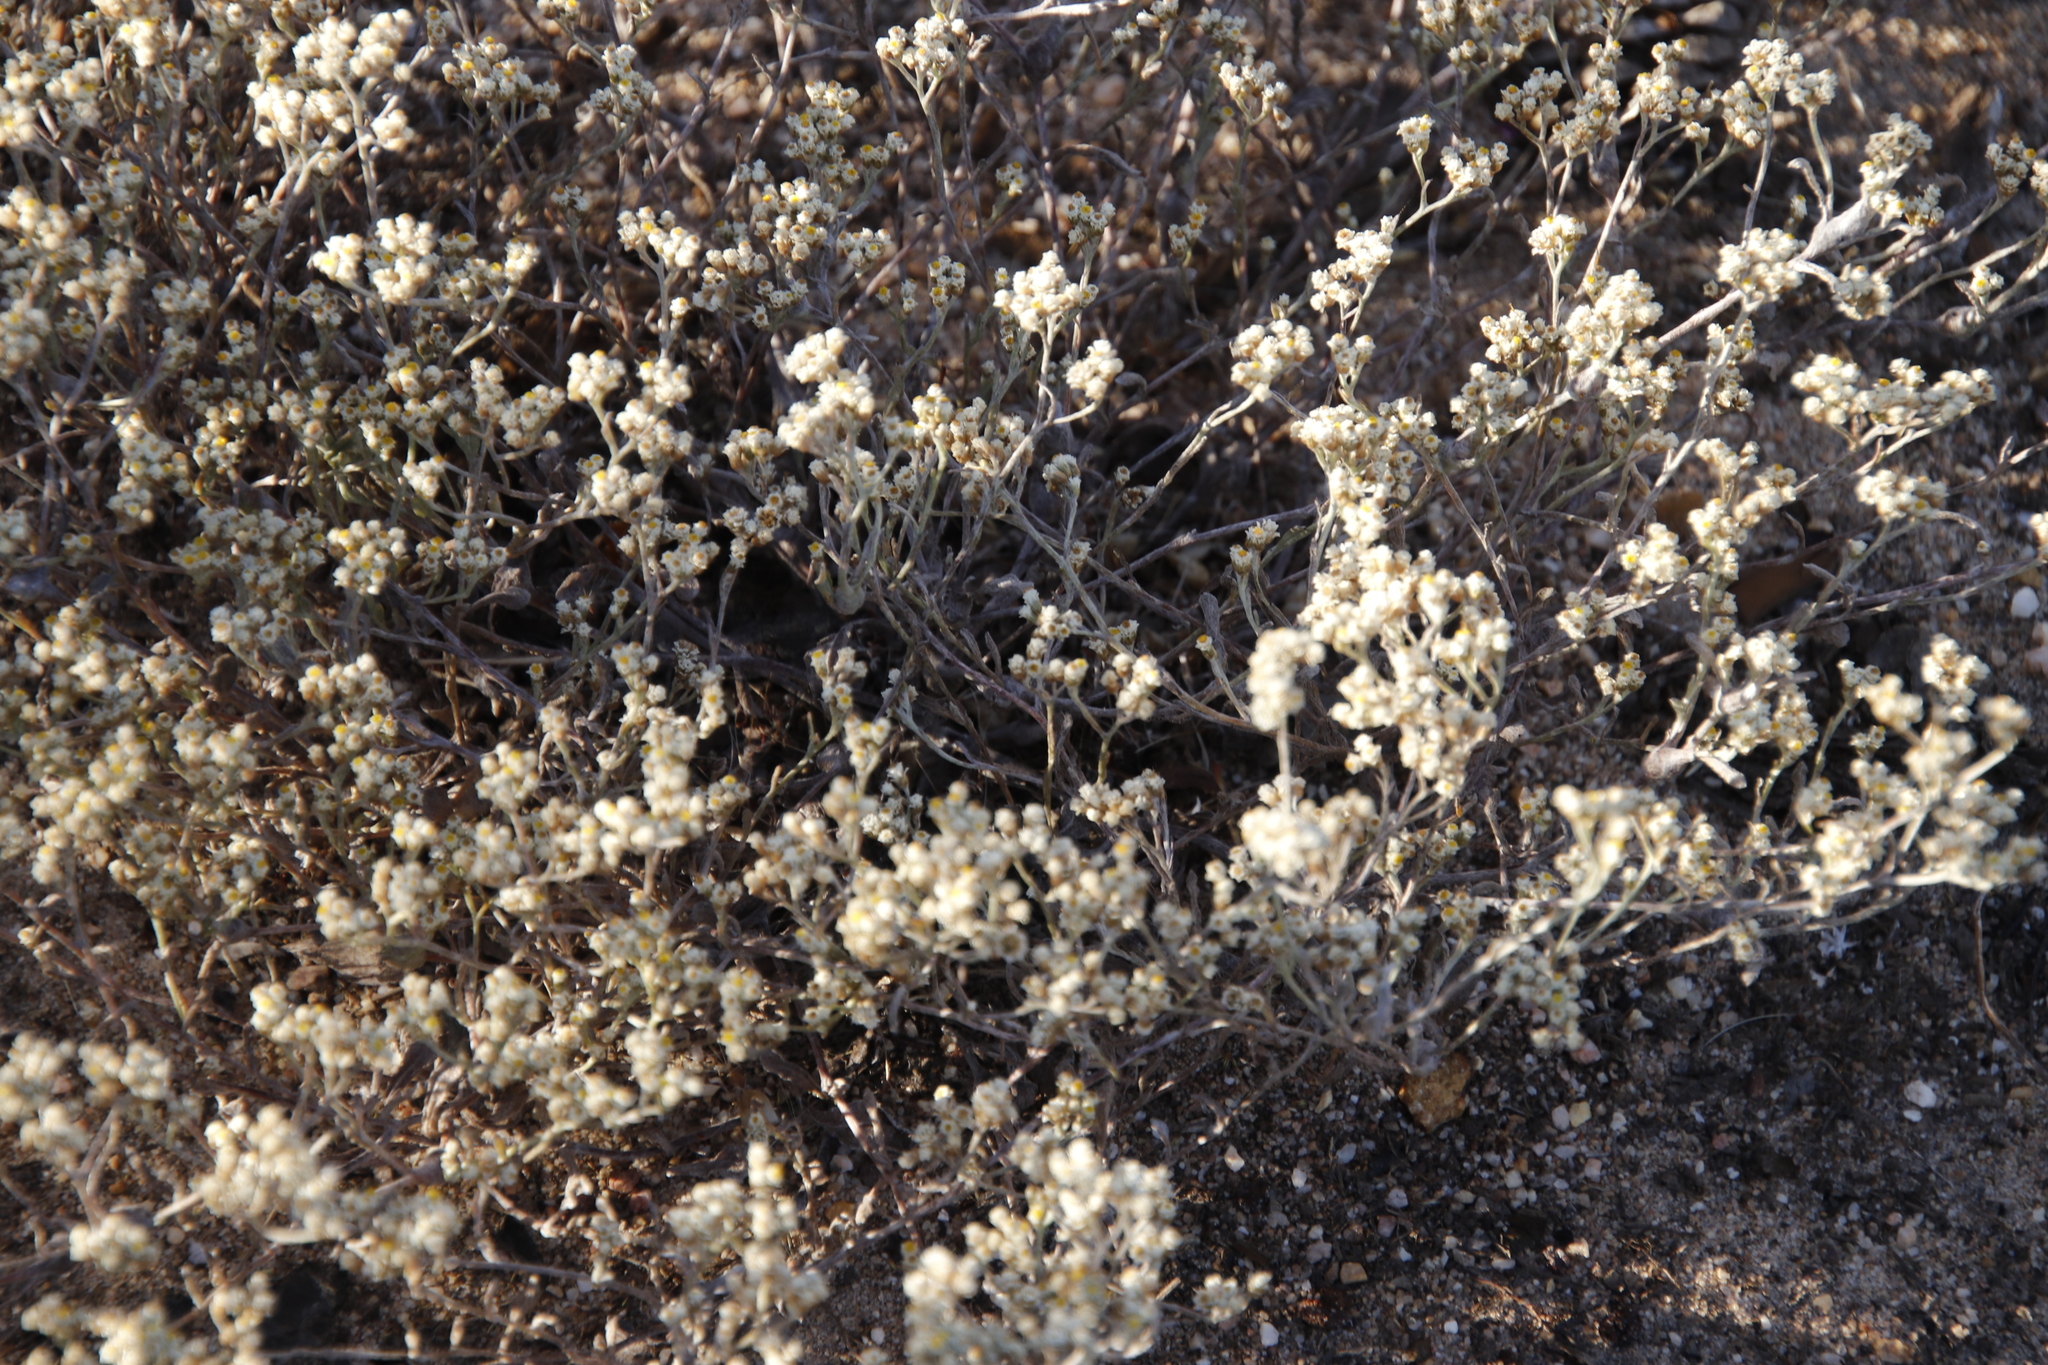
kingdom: Plantae
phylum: Tracheophyta
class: Magnoliopsida
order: Asterales
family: Asteraceae
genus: Helichrysum
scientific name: Helichrysum indicum
